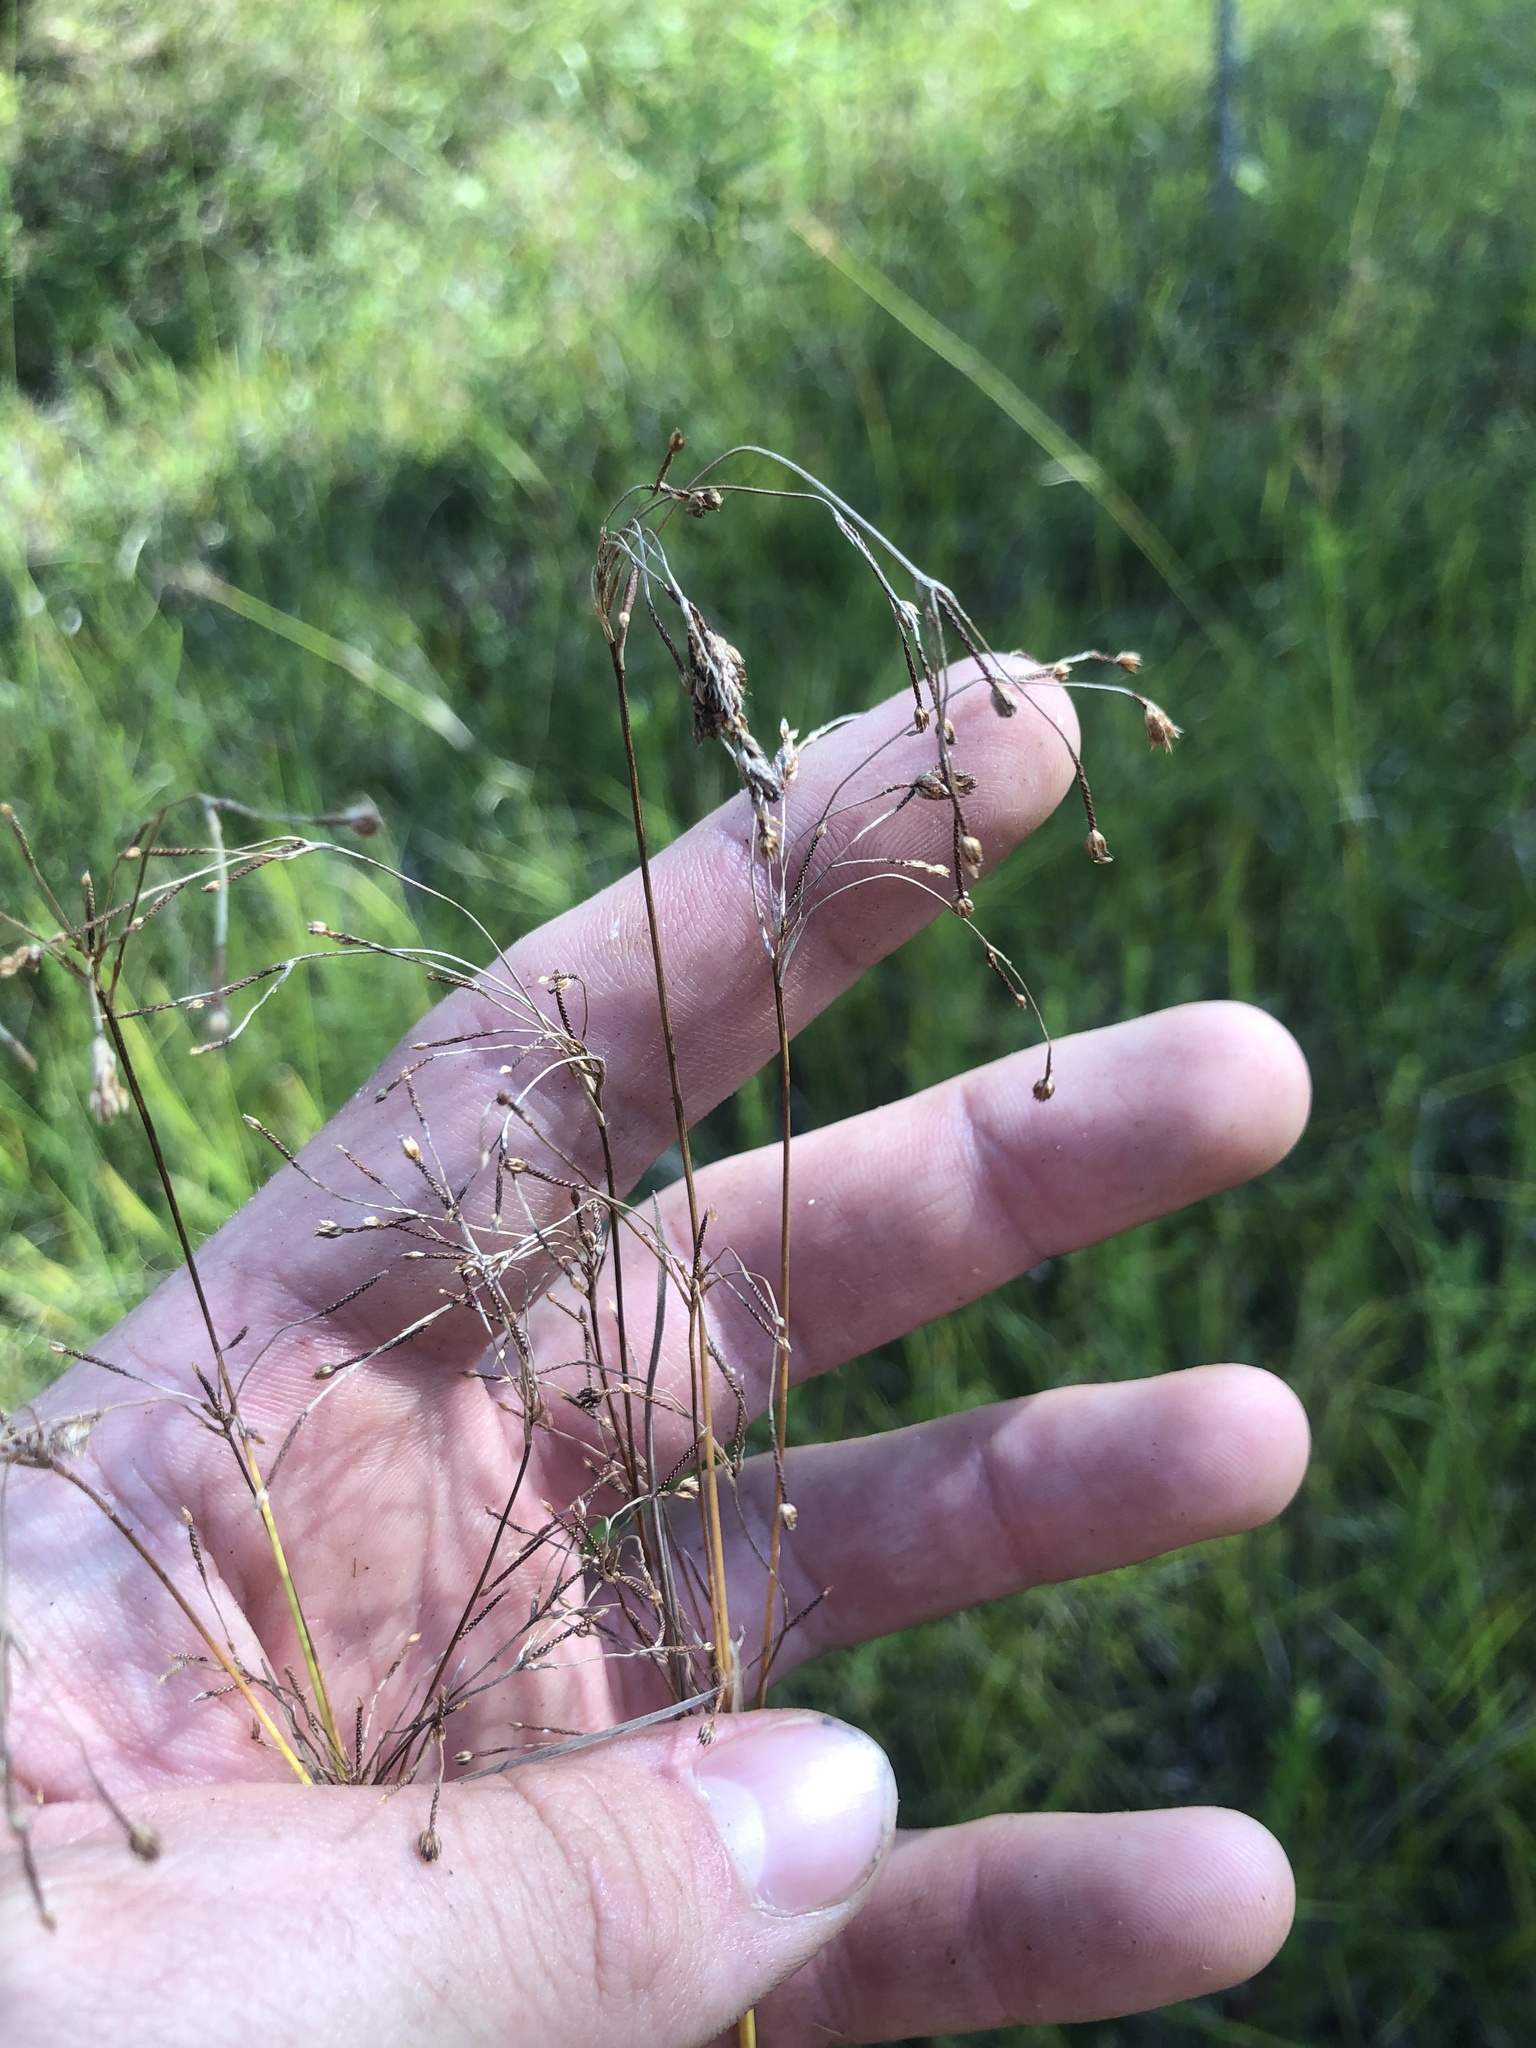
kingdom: Plantae
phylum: Tracheophyta
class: Liliopsida
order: Poales
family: Cyperaceae
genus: Scirpus
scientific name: Scirpus pendulus
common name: Nodding bulrush
